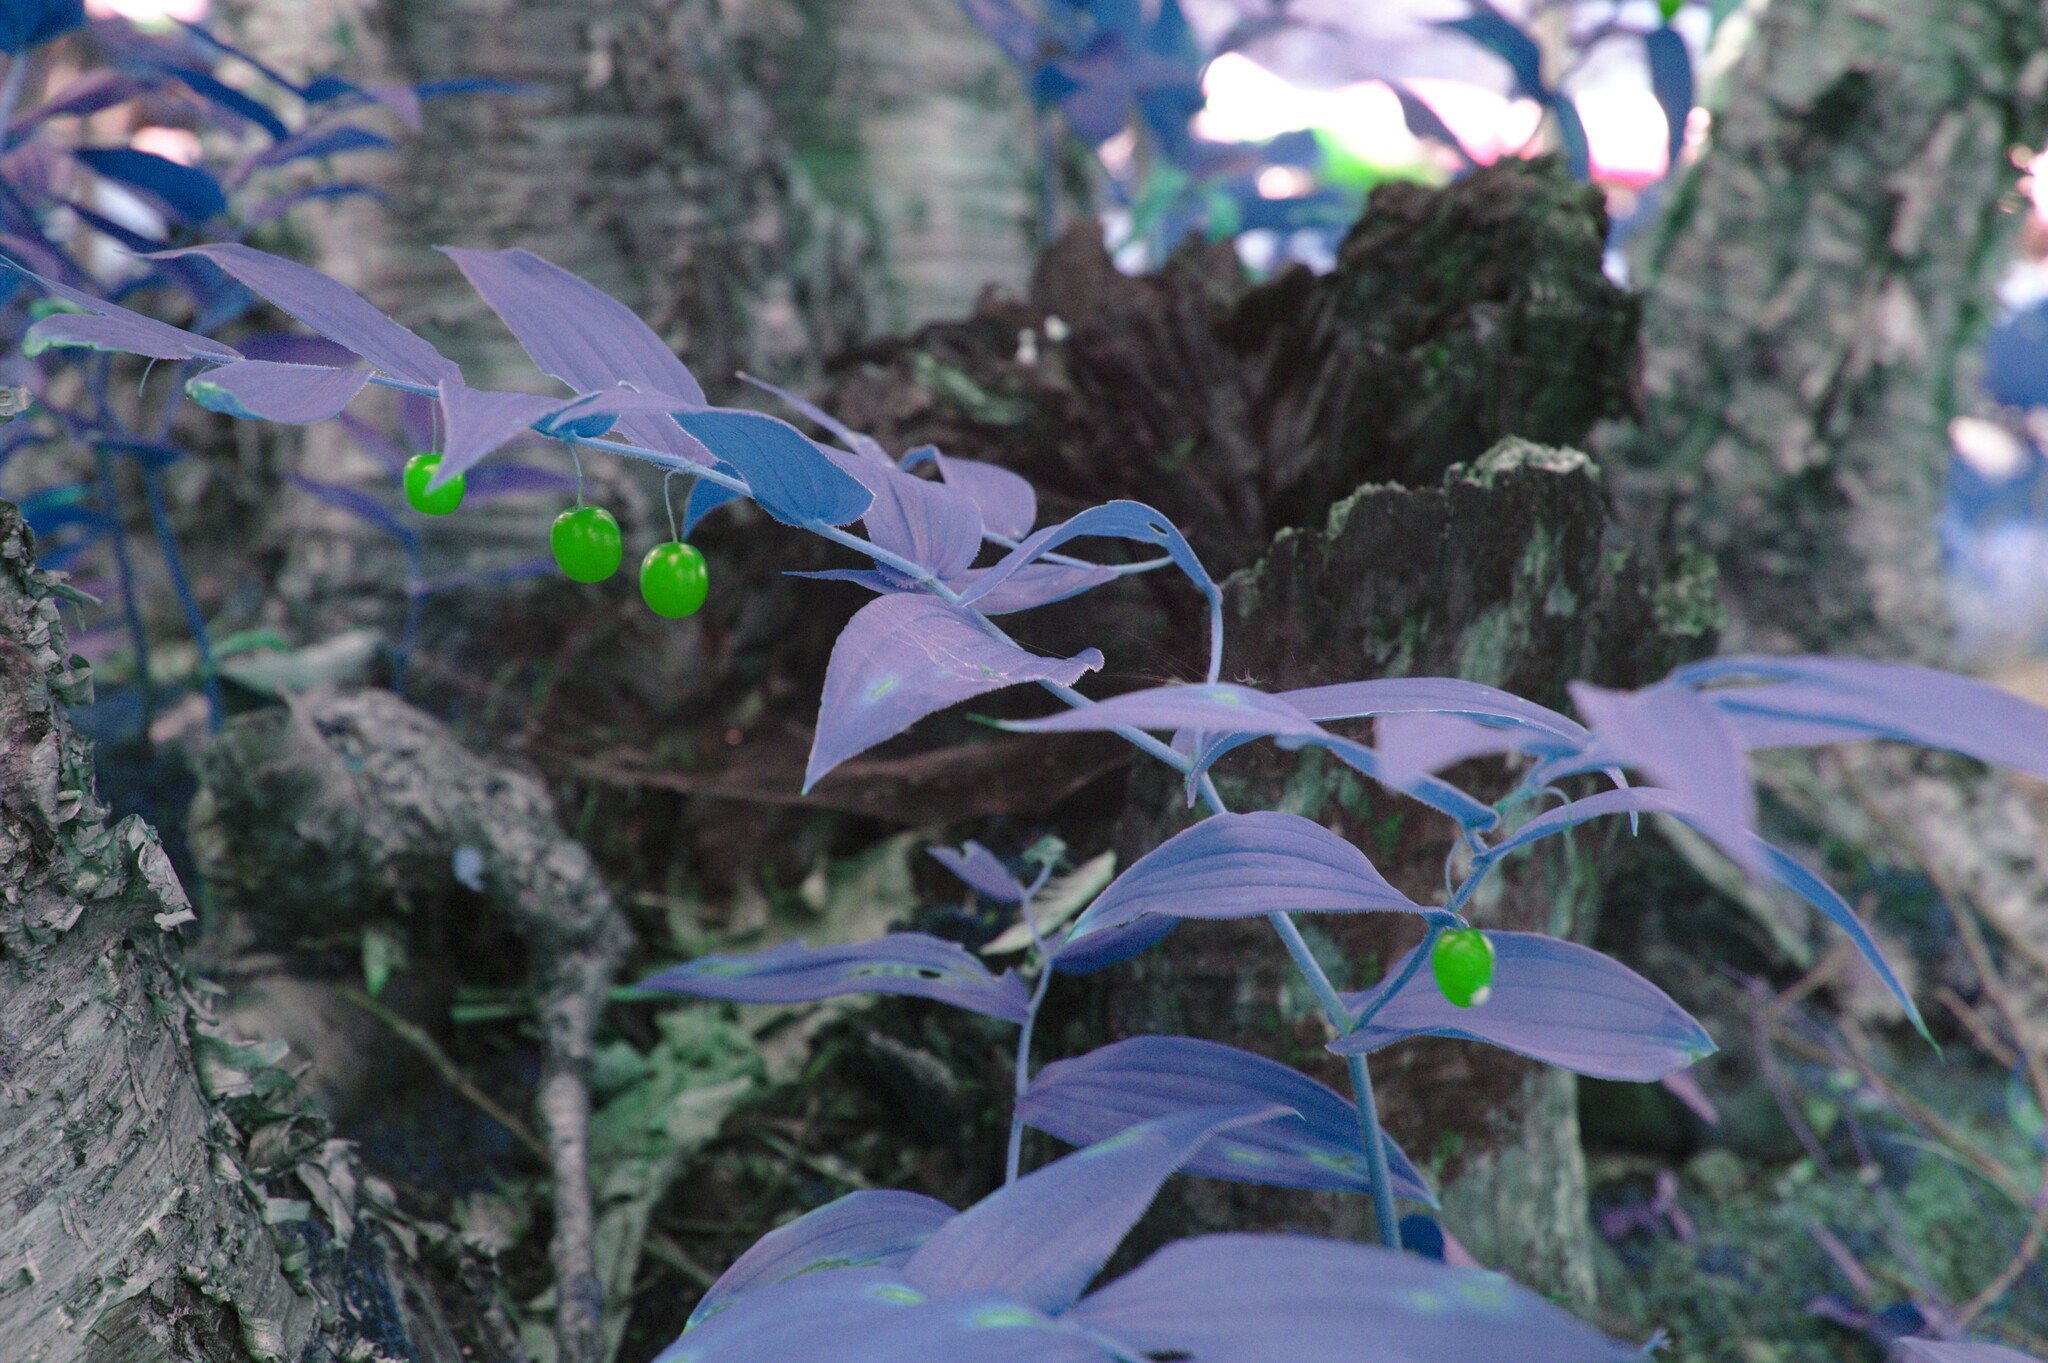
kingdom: Plantae
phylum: Tracheophyta
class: Liliopsida
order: Liliales
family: Liliaceae
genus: Streptopus
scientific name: Streptopus lanceolatus
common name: Rose mandarin
